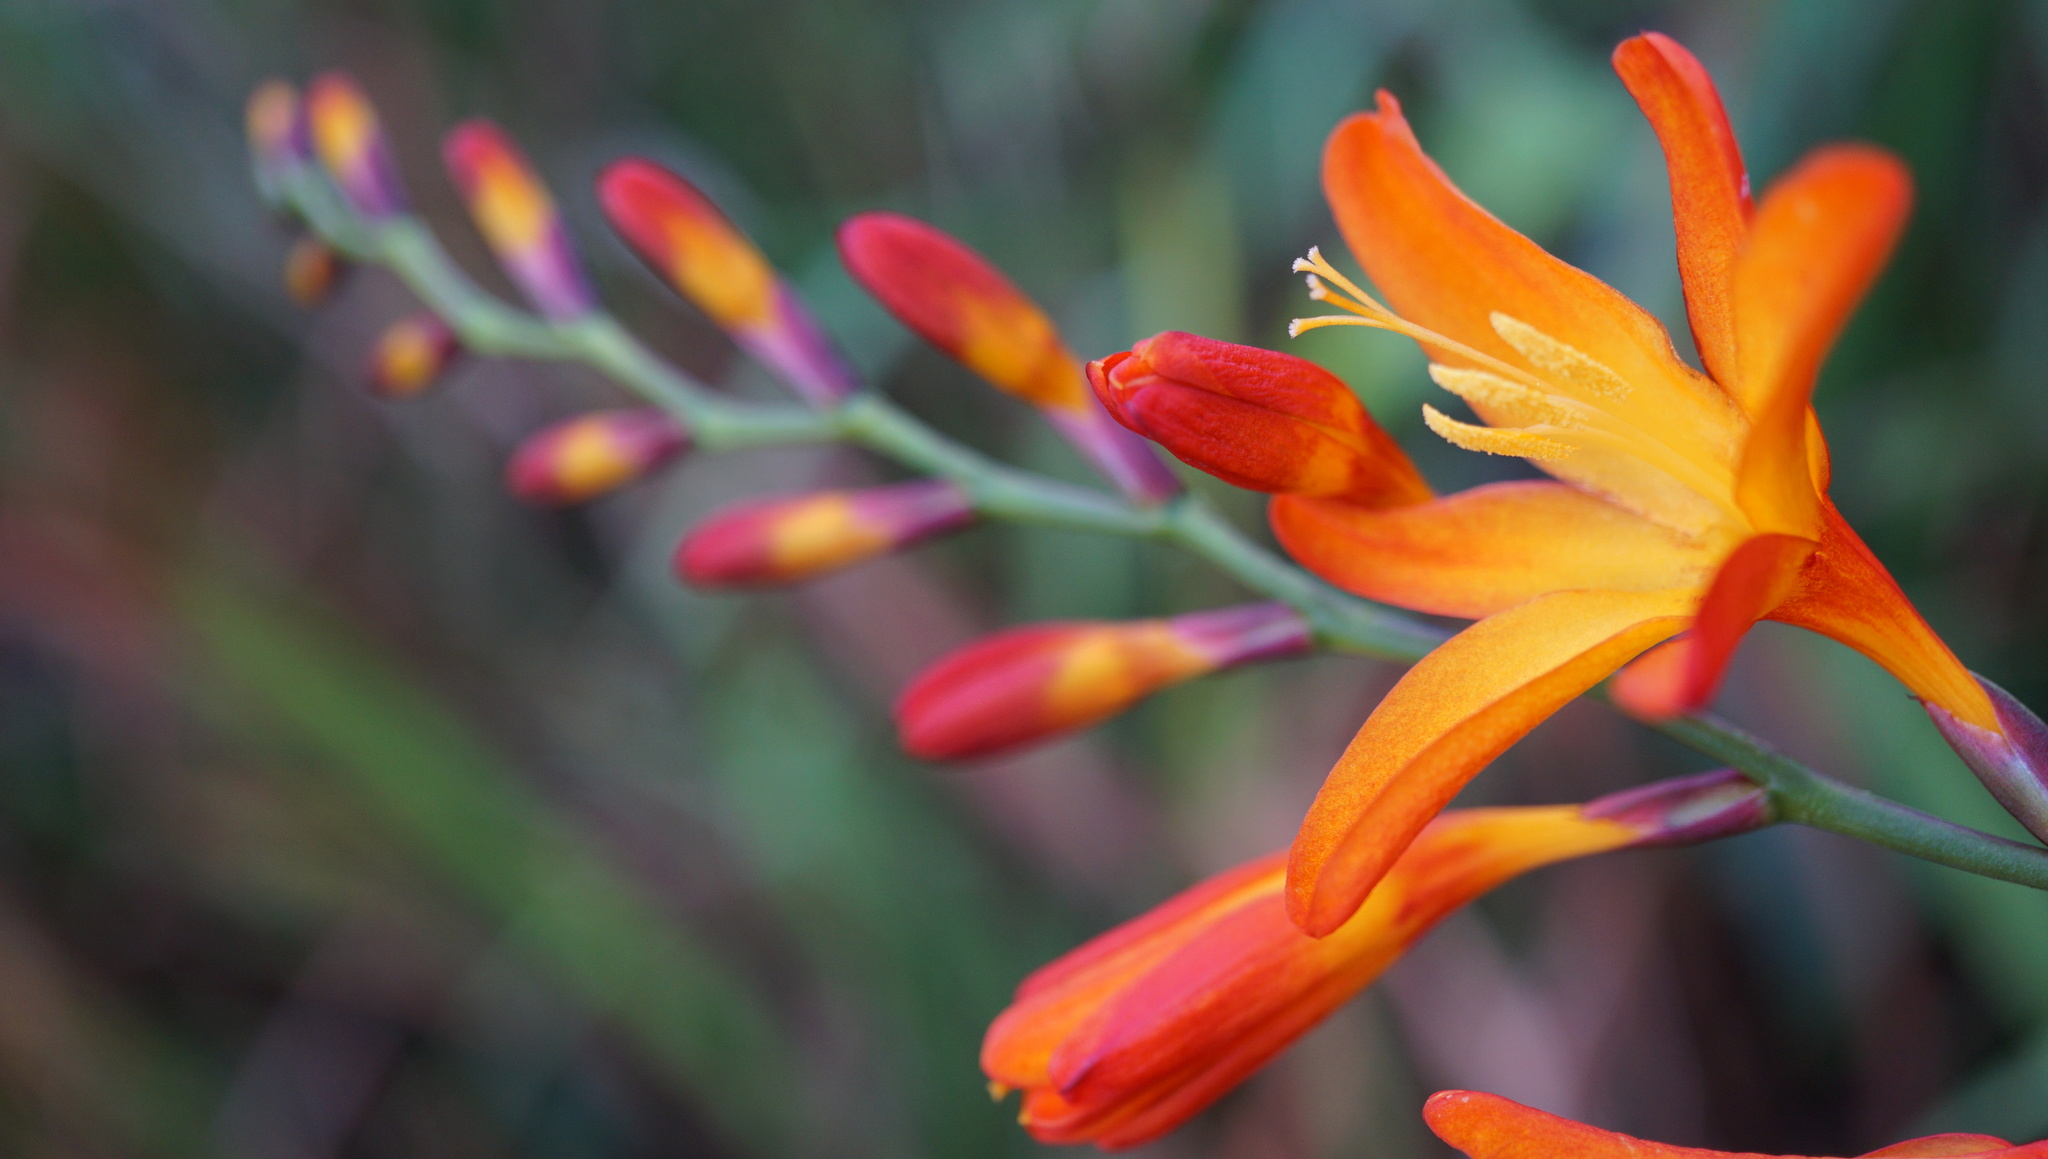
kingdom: Plantae
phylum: Tracheophyta
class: Liliopsida
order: Asparagales
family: Iridaceae
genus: Crocosmia
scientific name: Crocosmia crocosmiiflora
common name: Montbretia
